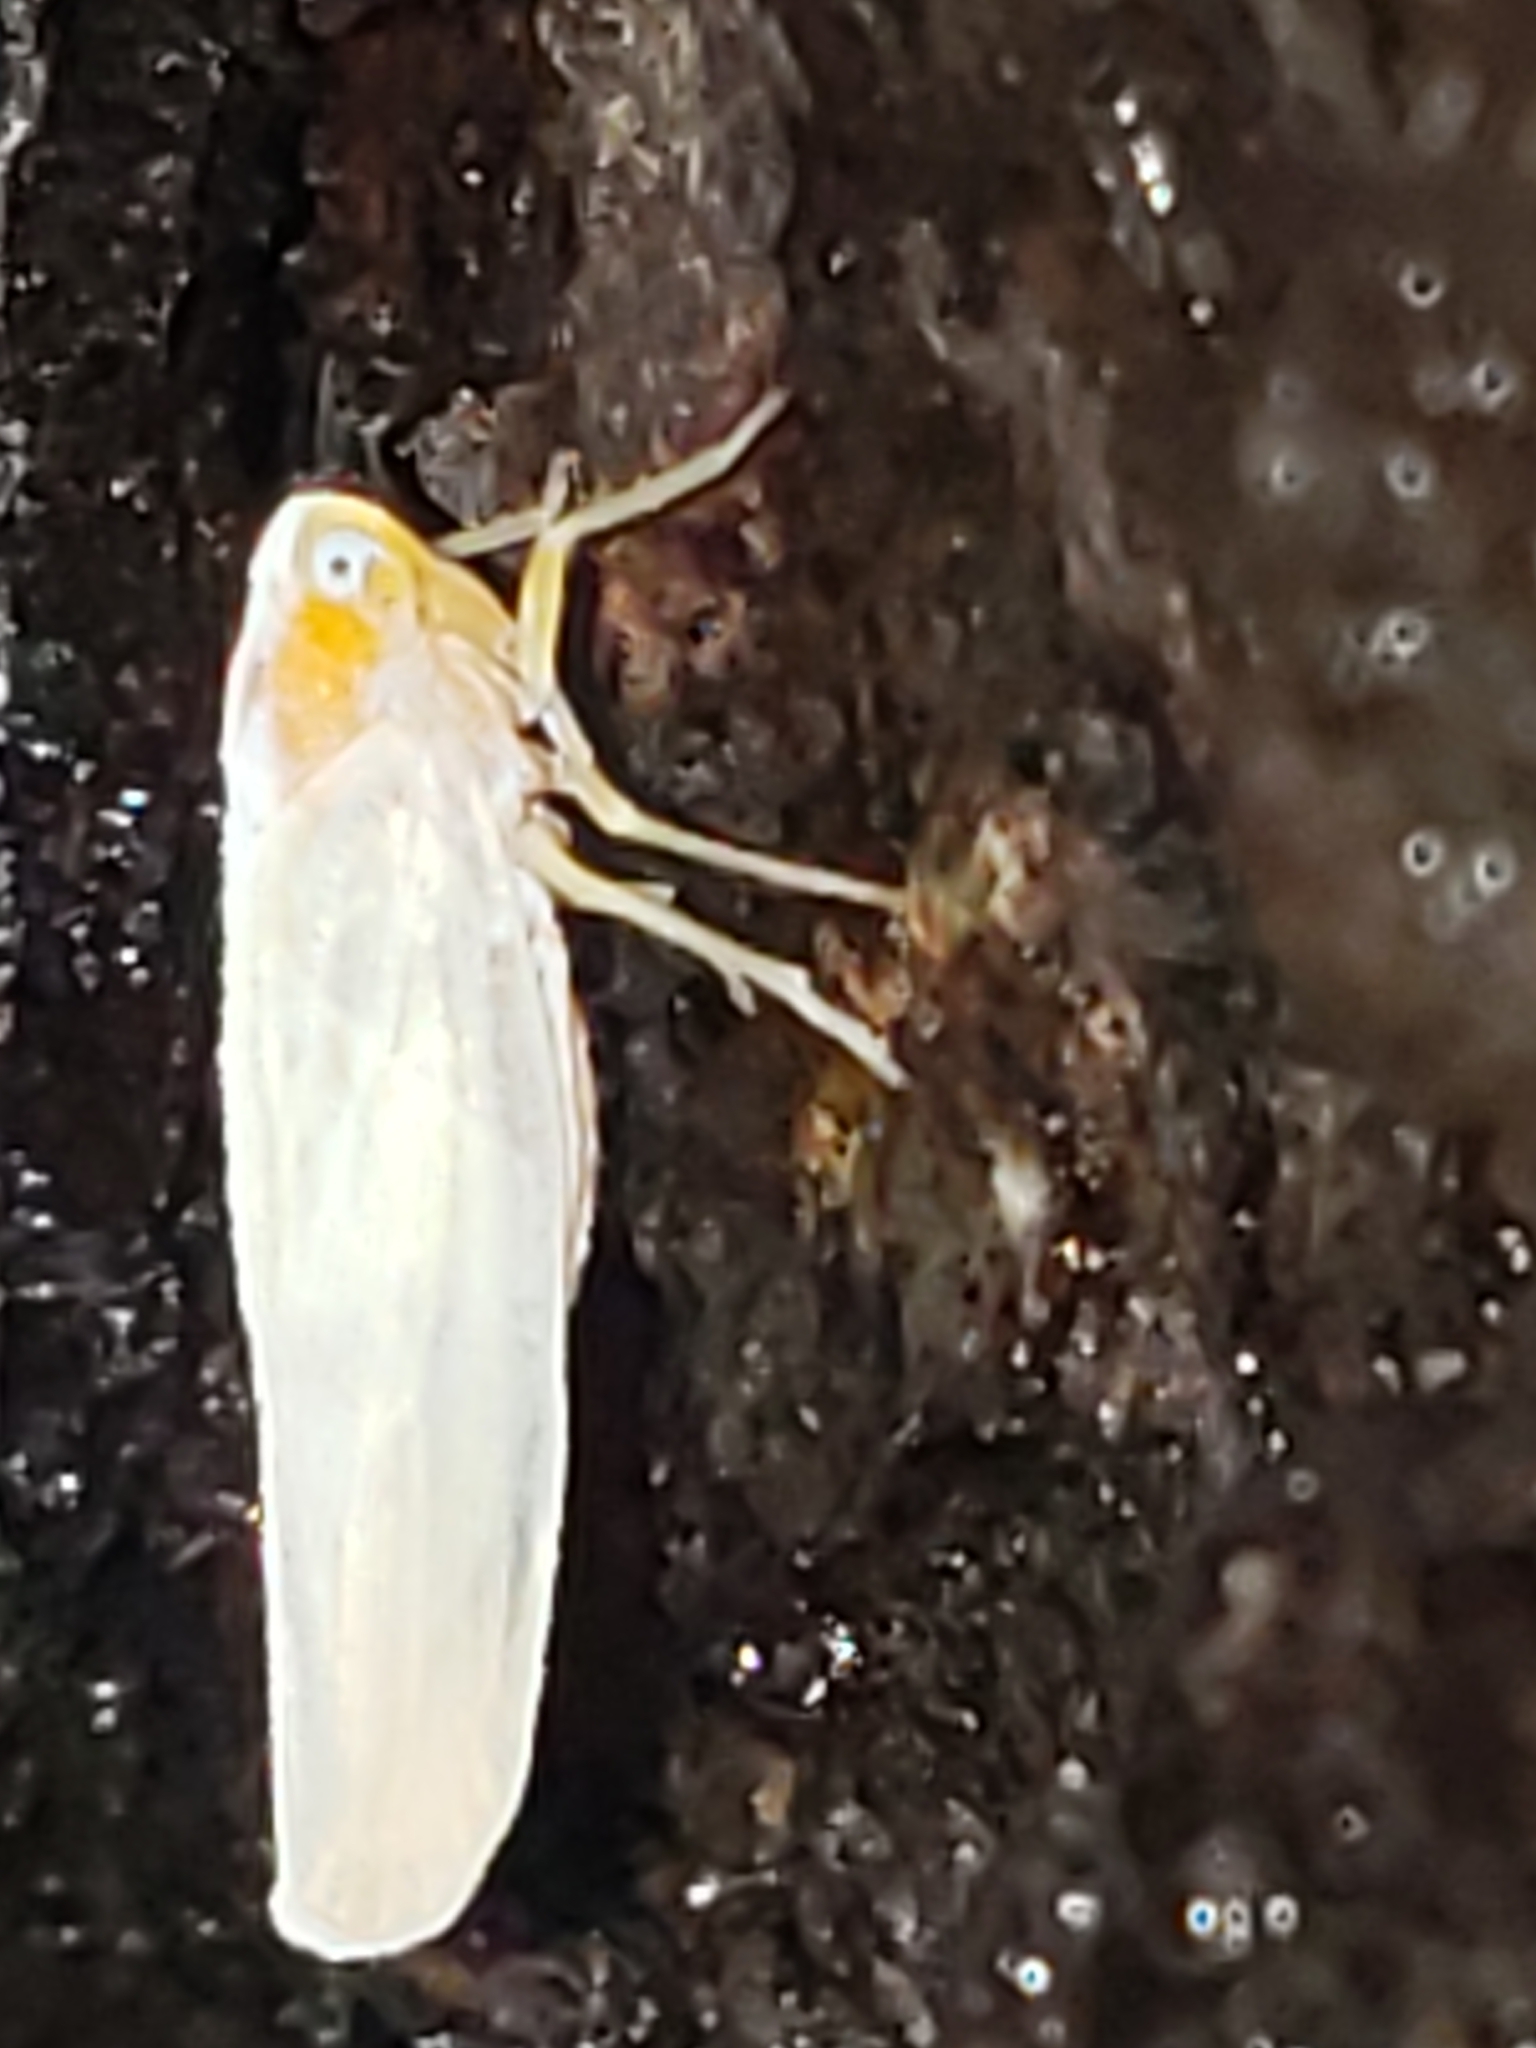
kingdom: Animalia
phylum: Arthropoda
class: Insecta
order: Hemiptera
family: Derbidae
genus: Neocenchrea
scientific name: Neocenchrea heidemanni
